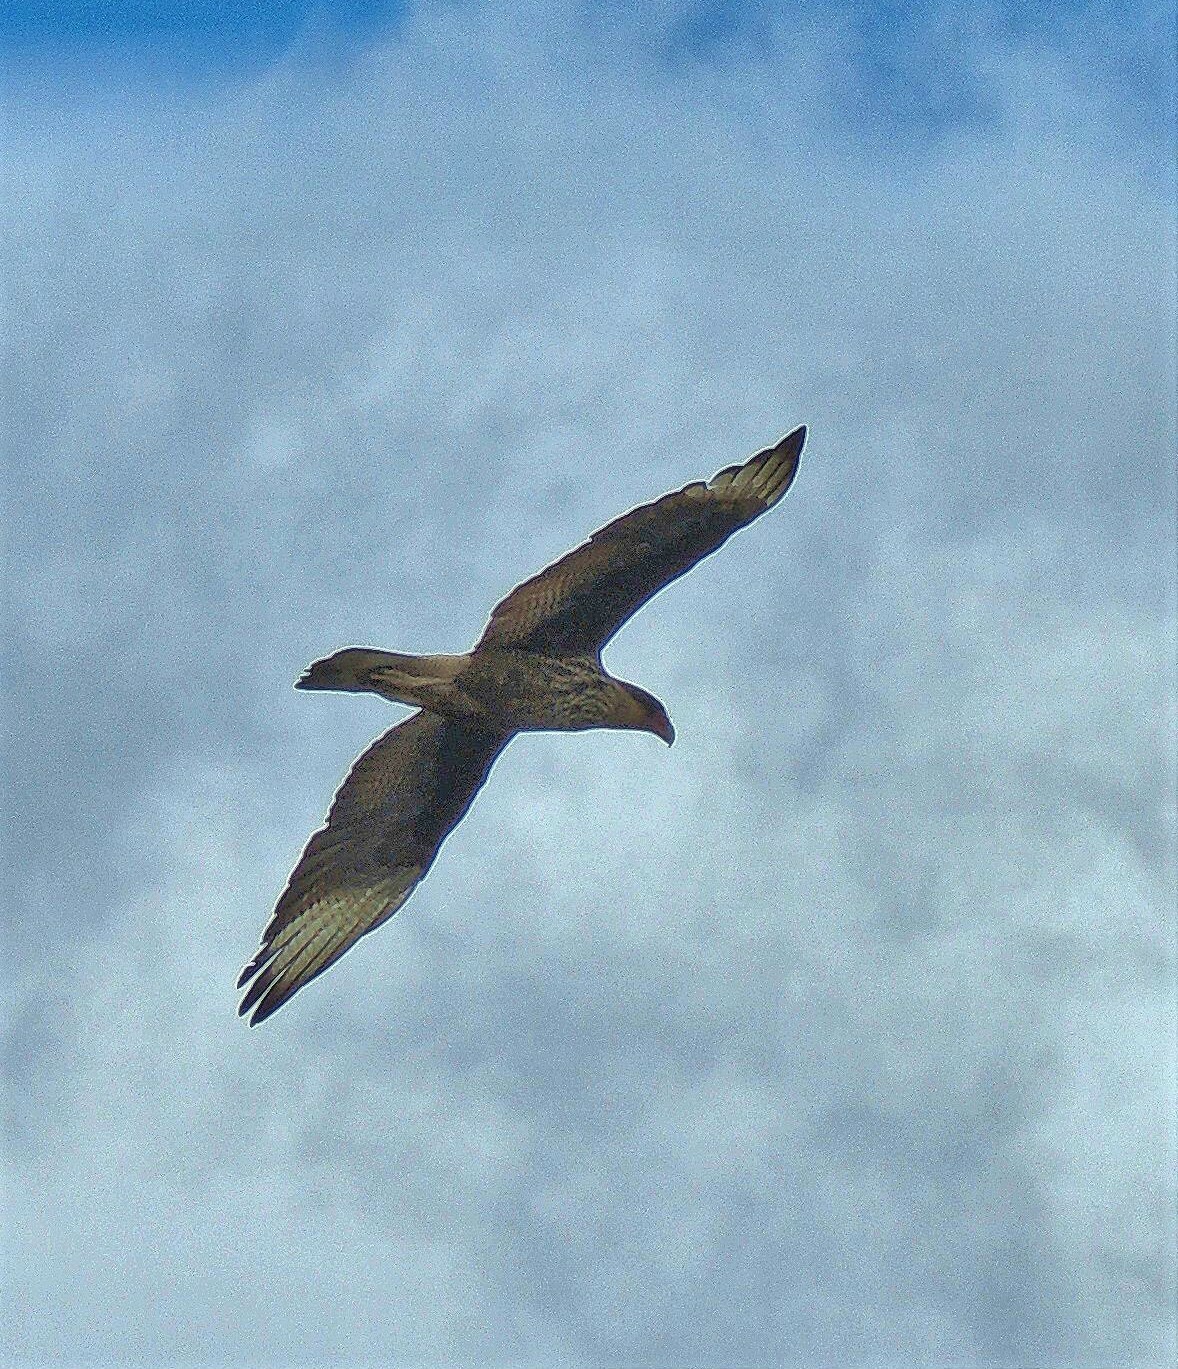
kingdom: Animalia
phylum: Chordata
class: Aves
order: Falconiformes
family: Falconidae
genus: Caracara
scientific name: Caracara plancus
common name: Southern caracara
